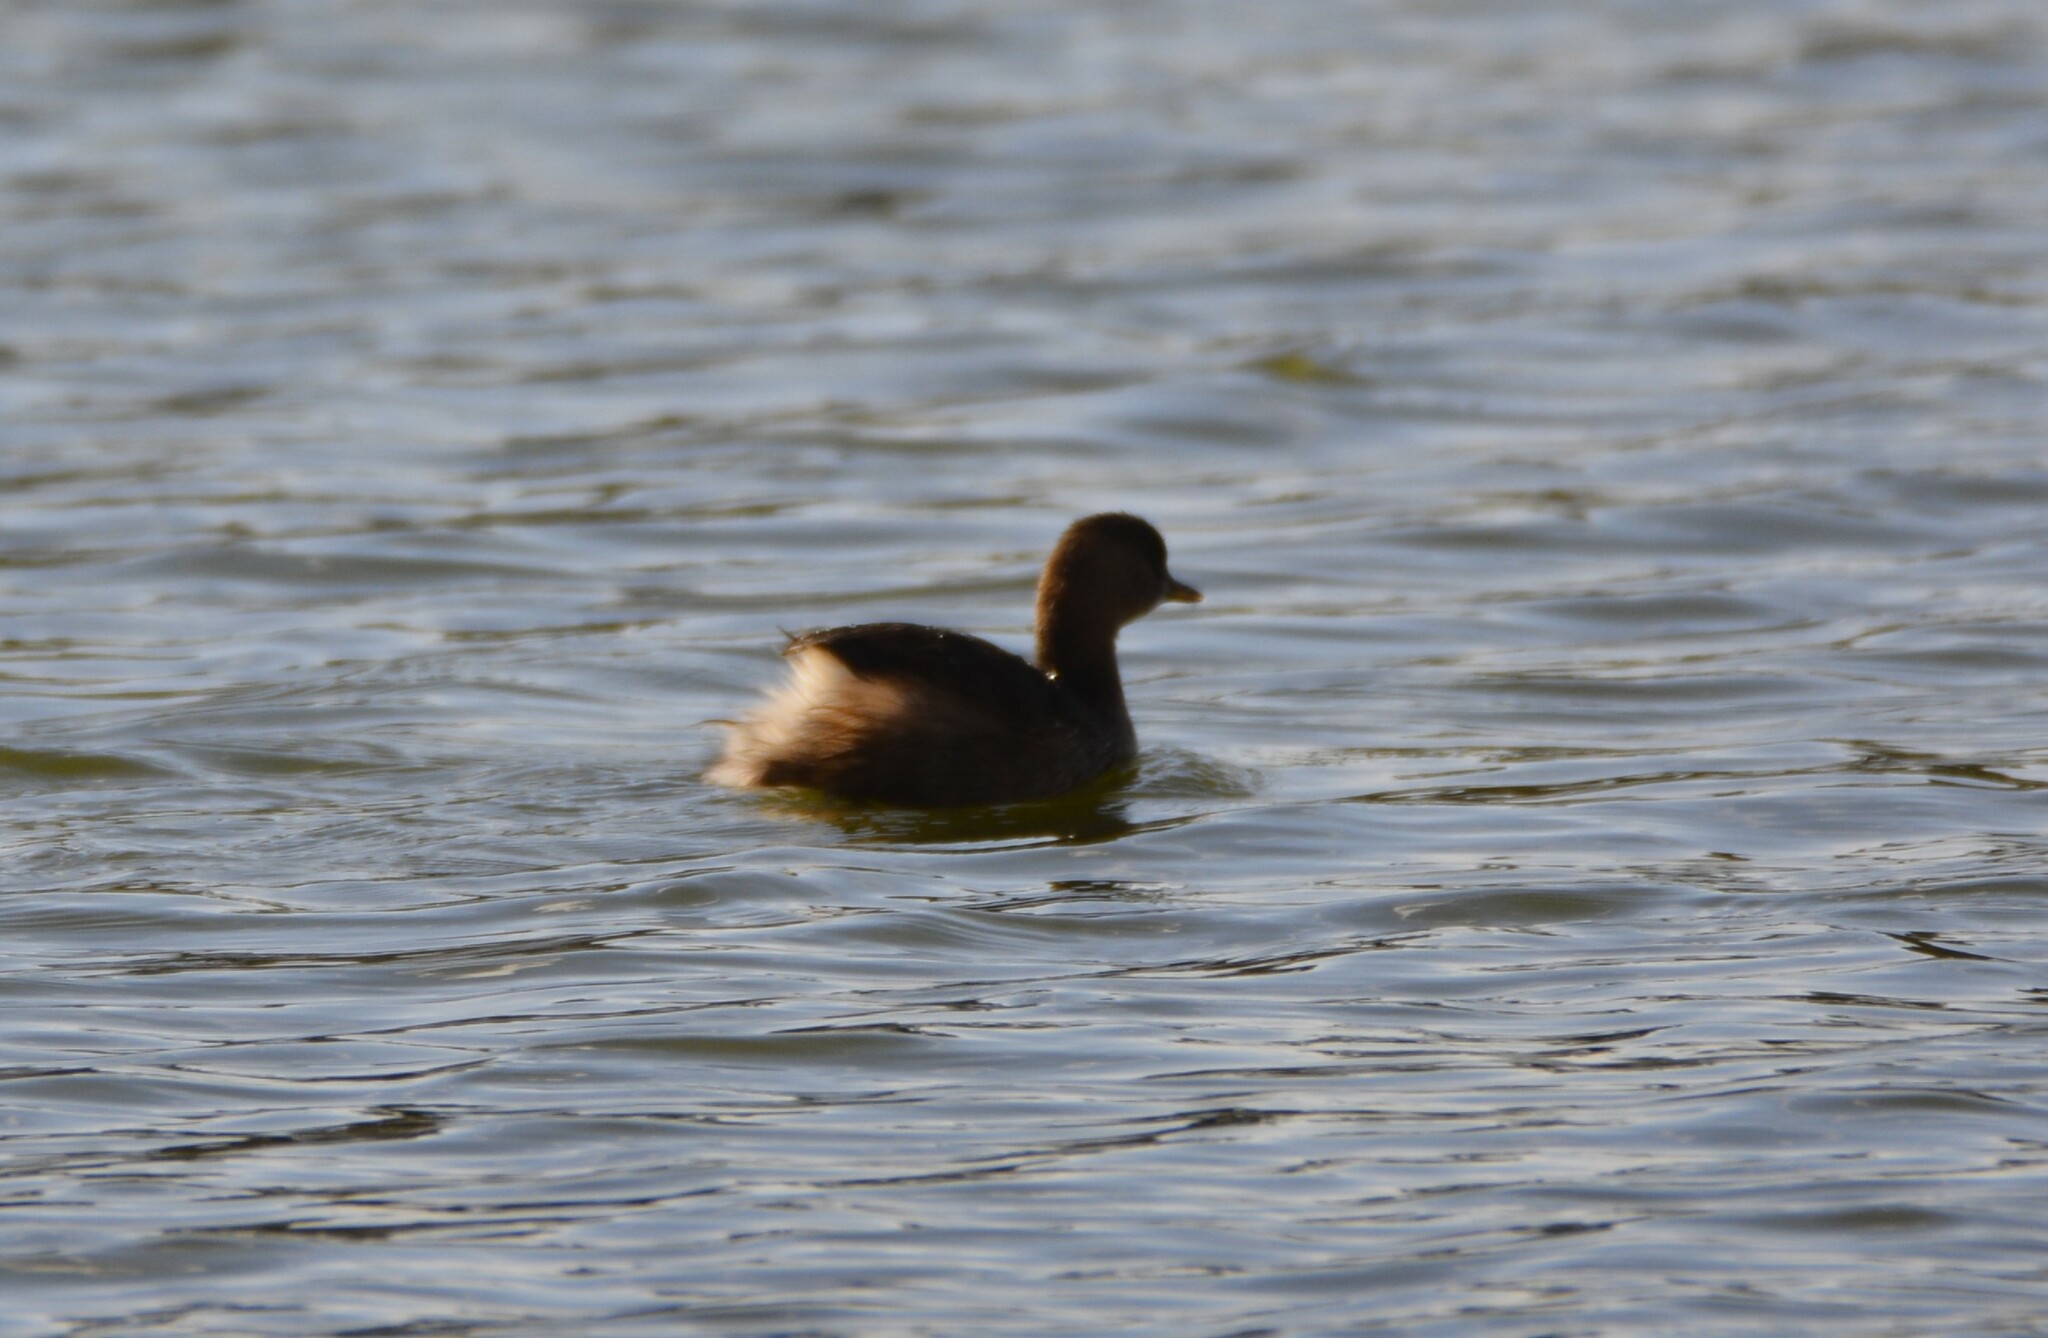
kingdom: Animalia
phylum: Chordata
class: Aves
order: Podicipediformes
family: Podicipedidae
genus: Tachybaptus
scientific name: Tachybaptus ruficollis
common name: Little grebe
